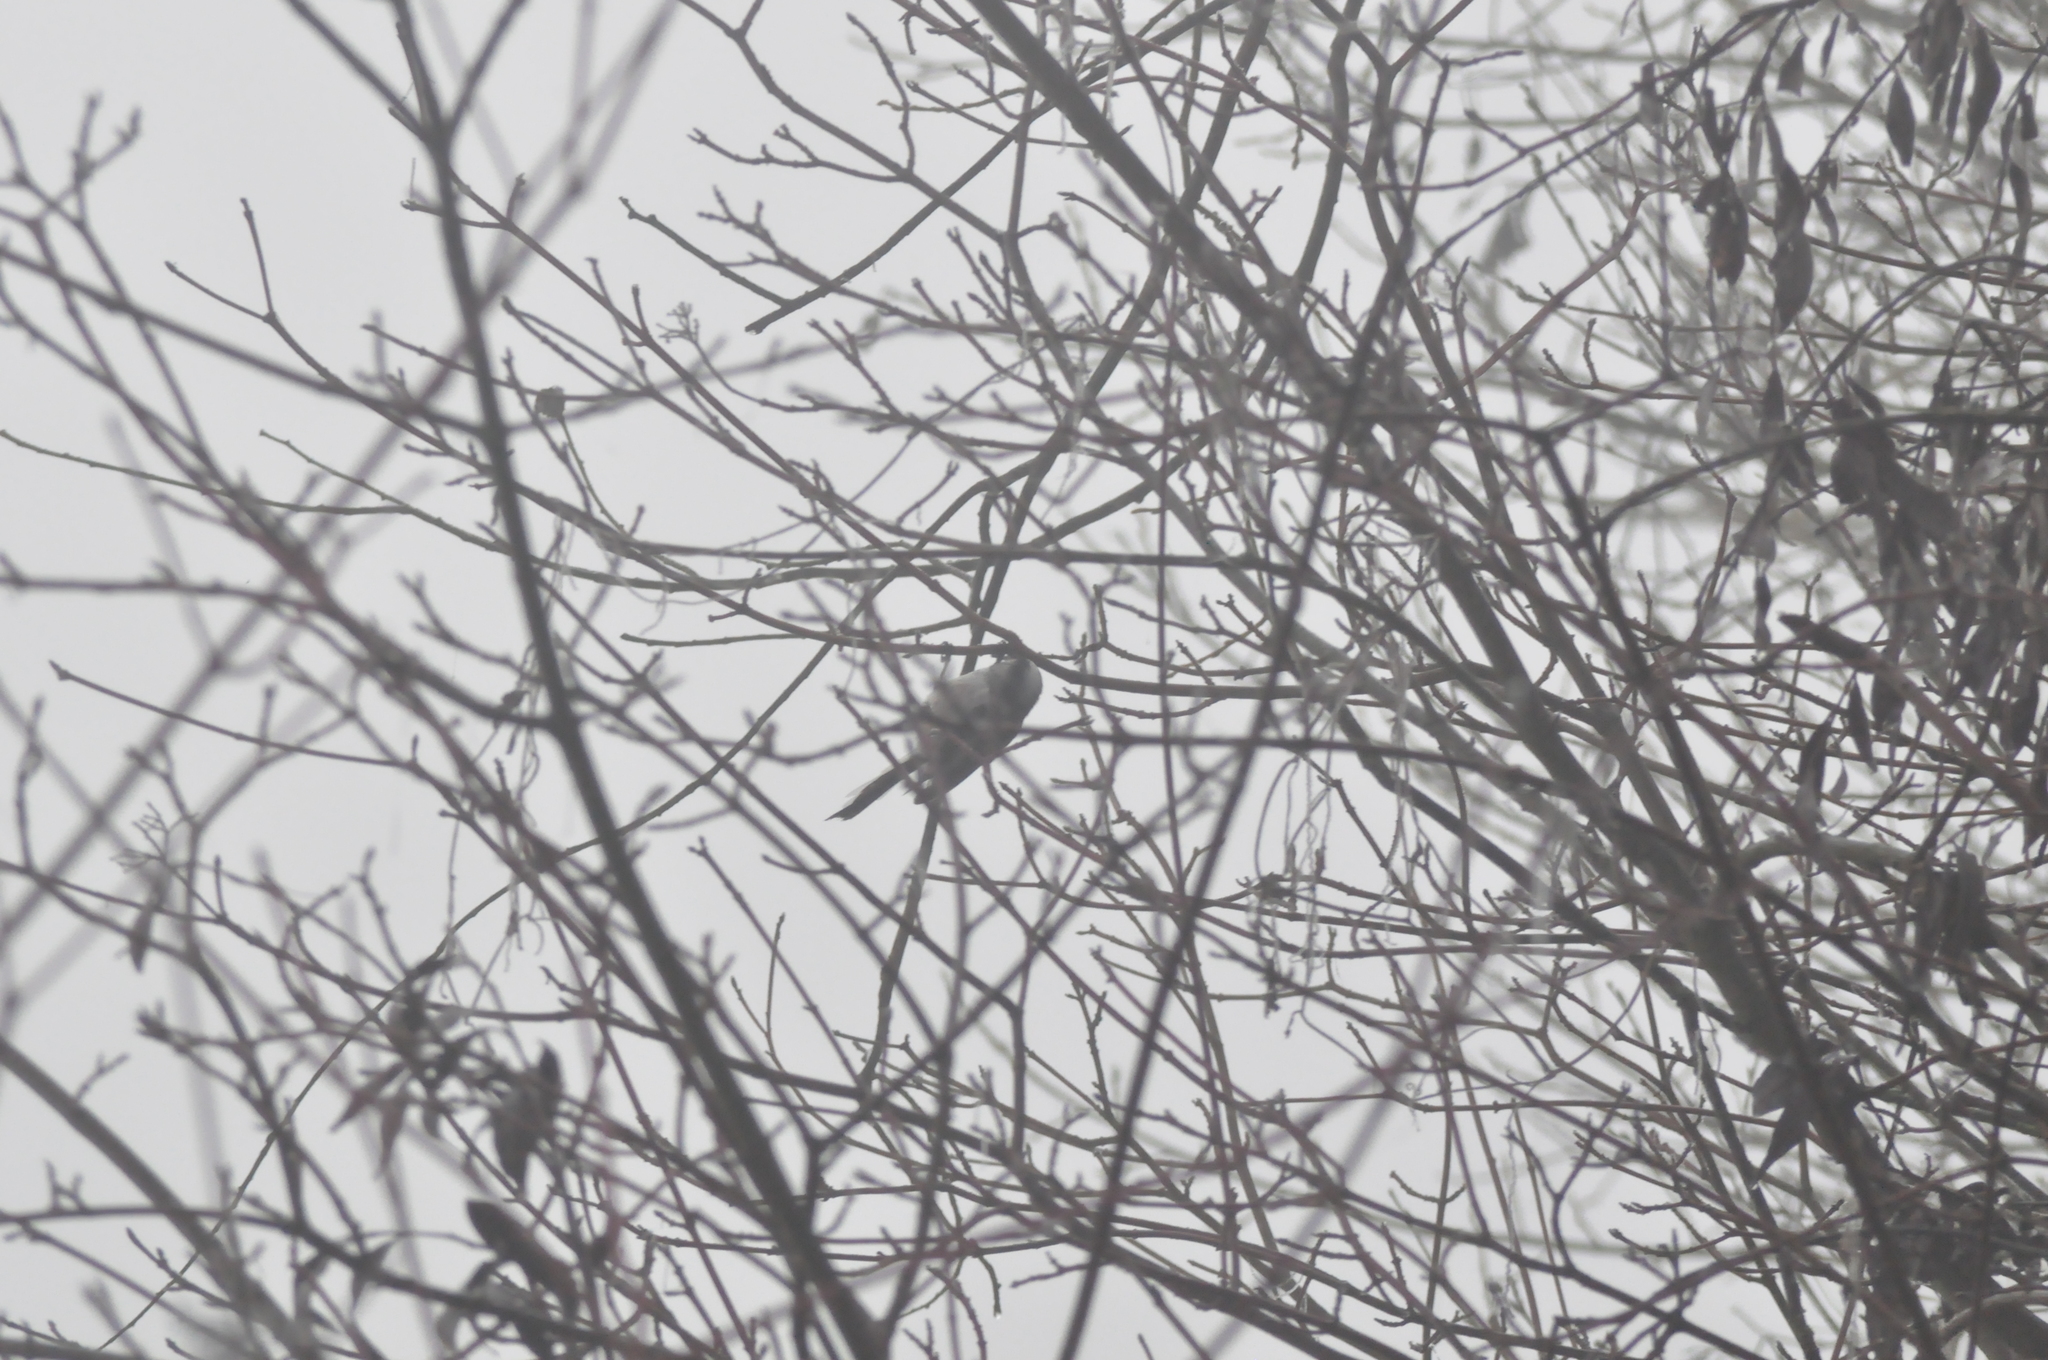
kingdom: Animalia
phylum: Chordata
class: Aves
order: Passeriformes
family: Aegithalidae
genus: Aegithalos
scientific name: Aegithalos caudatus
